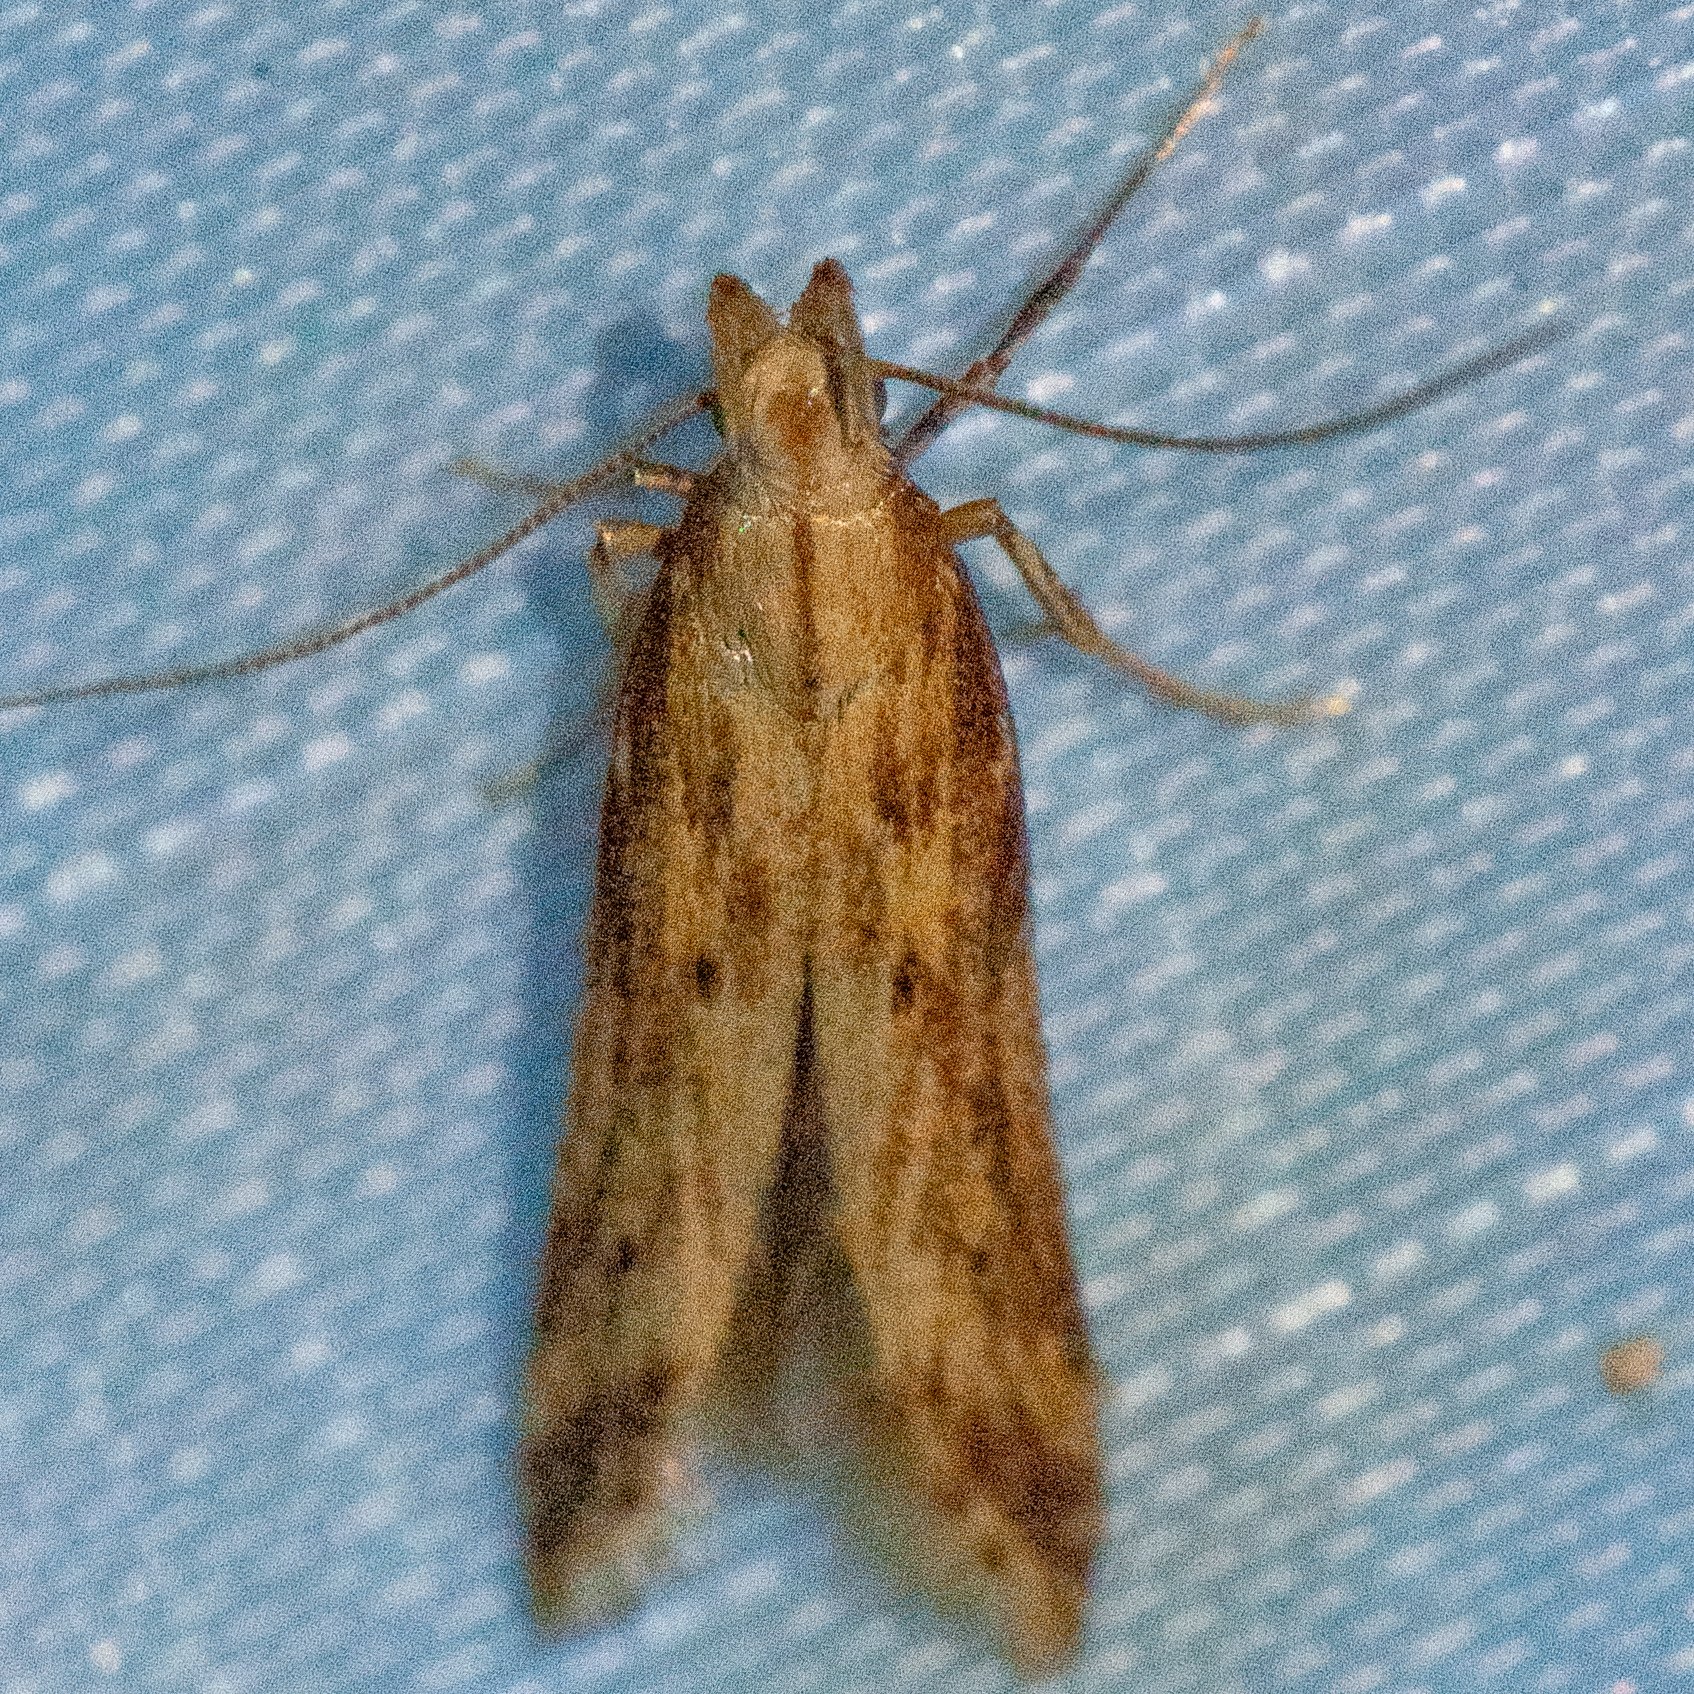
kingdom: Animalia
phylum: Arthropoda
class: Insecta
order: Lepidoptera
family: Gelechiidae
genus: Metzneria
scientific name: Metzneria lappella
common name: Burdock neb
